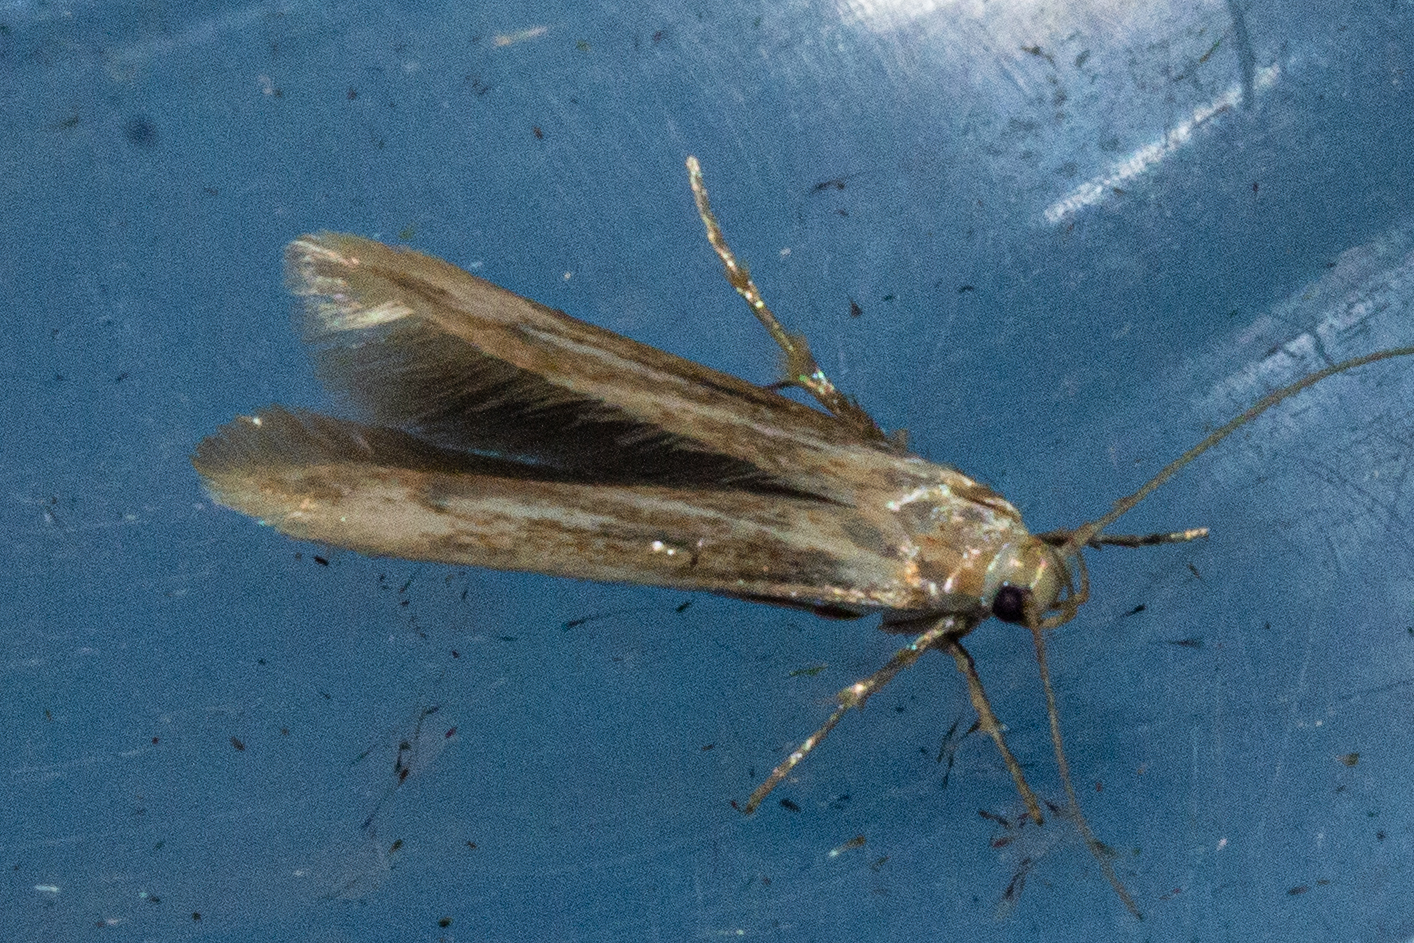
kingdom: Animalia
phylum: Arthropoda
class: Insecta
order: Lepidoptera
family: Stathmopodidae
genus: Stathmopoda
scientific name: Stathmopoda aposema
